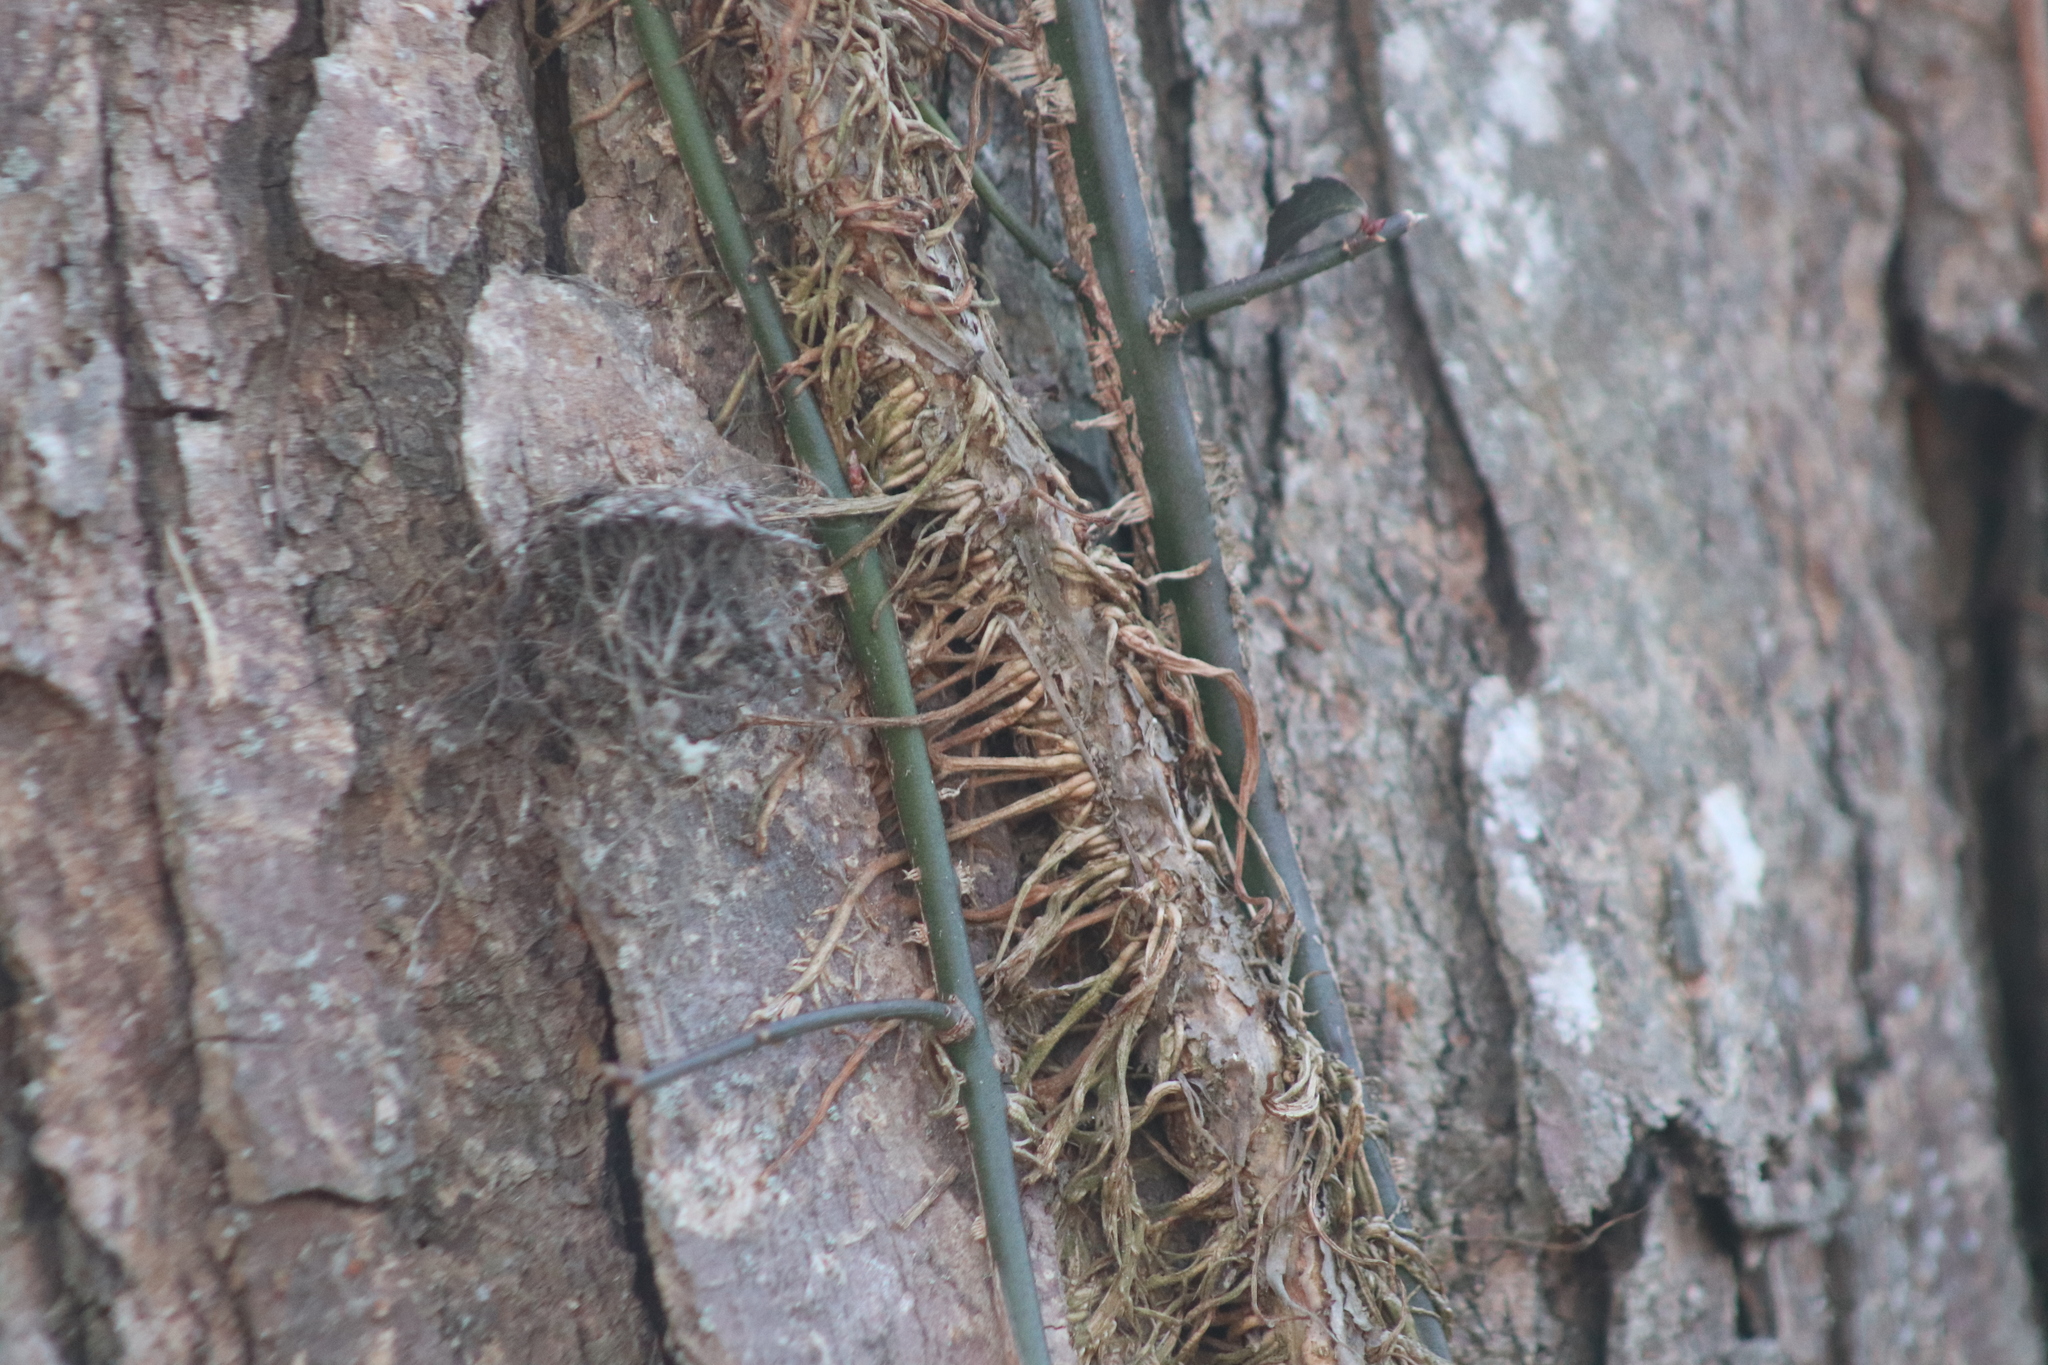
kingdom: Plantae
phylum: Tracheophyta
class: Magnoliopsida
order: Celastrales
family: Celastraceae
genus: Euonymus
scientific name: Euonymus fortunei
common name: Climbing euonymus
